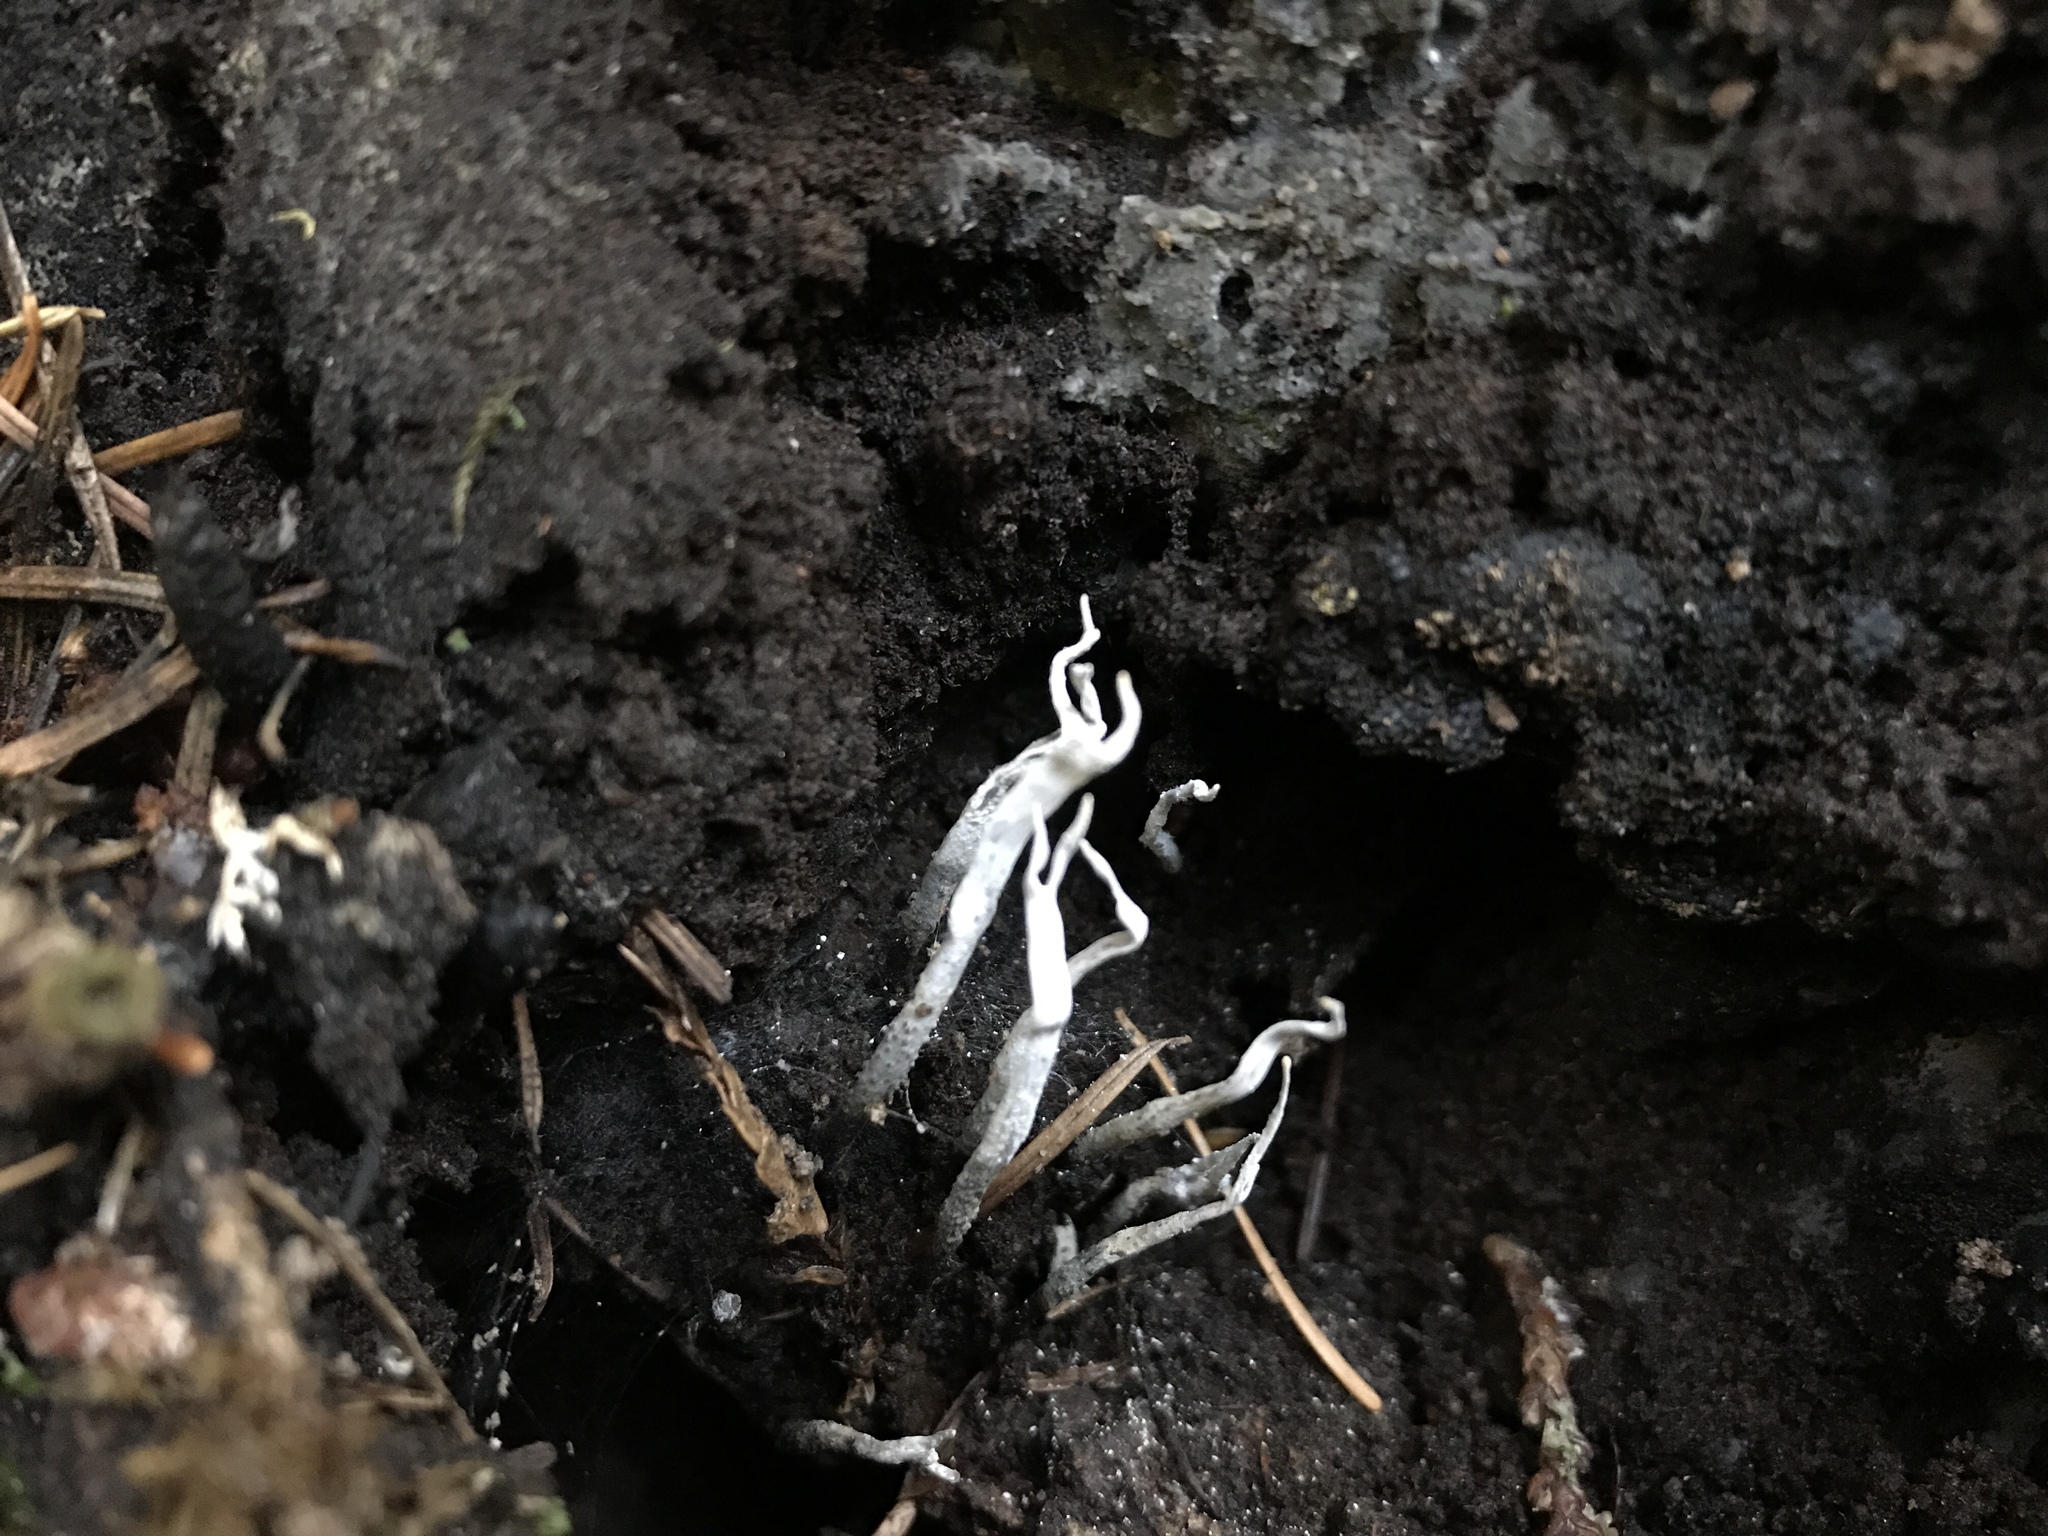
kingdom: Fungi
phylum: Ascomycota
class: Sordariomycetes
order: Xylariales
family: Xylariaceae
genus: Xylaria
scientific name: Xylaria hypoxylon
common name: Candle-snuff fungus
